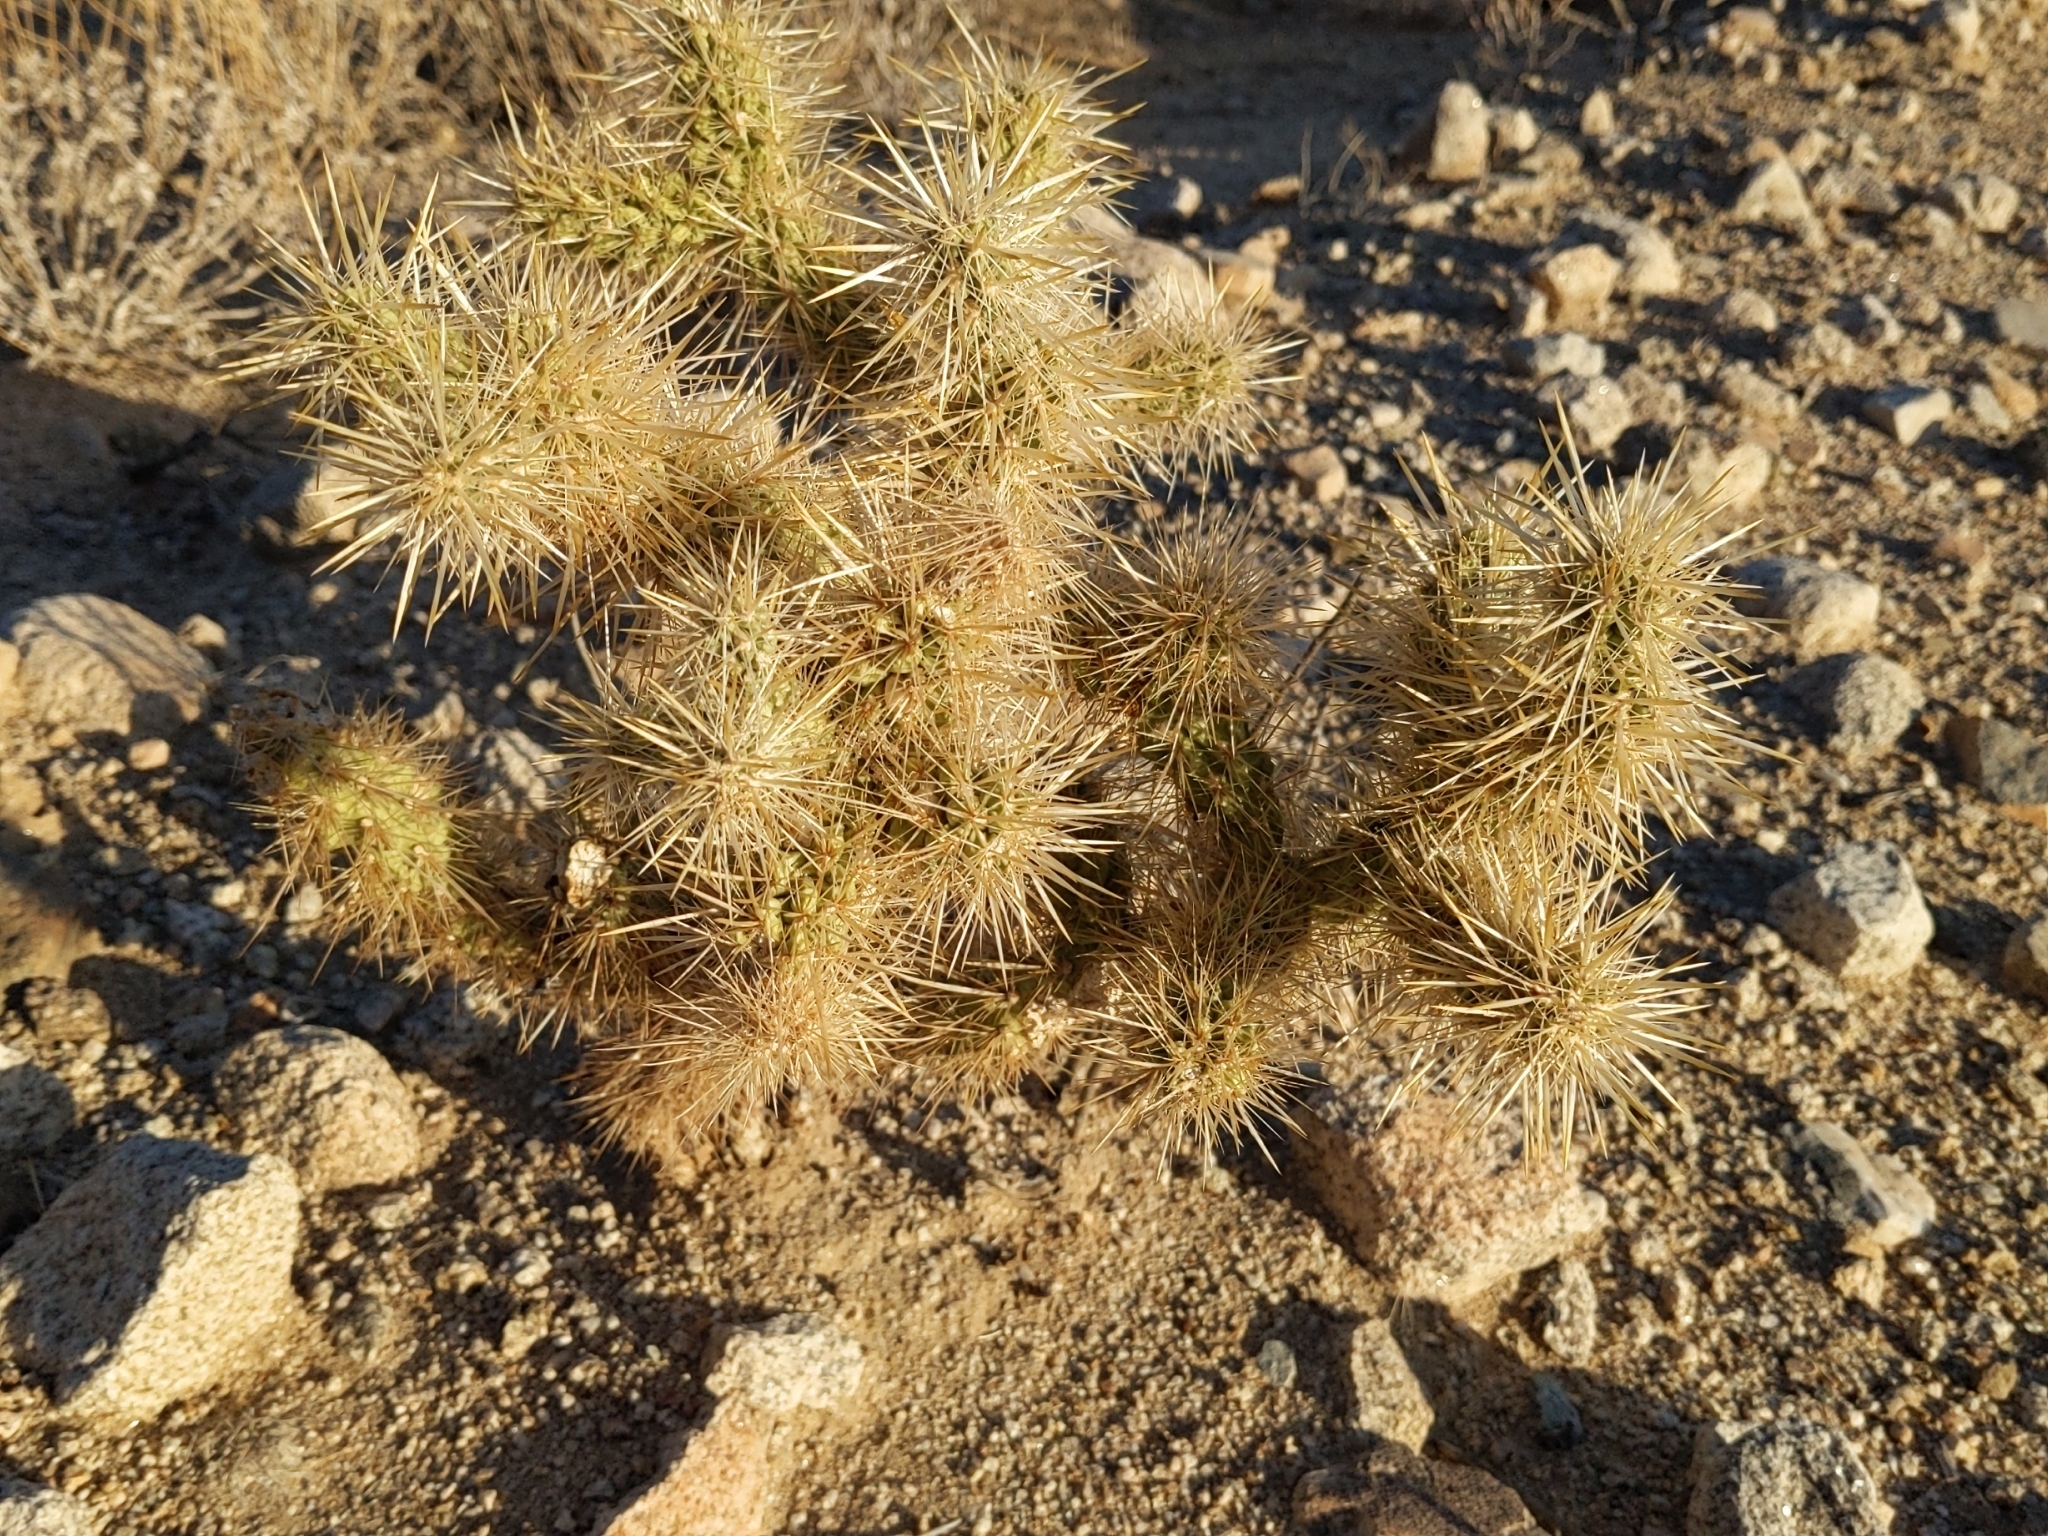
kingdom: Plantae
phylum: Tracheophyta
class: Magnoliopsida
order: Caryophyllales
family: Cactaceae
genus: Cylindropuntia
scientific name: Cylindropuntia echinocarpa
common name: Ground cholla
